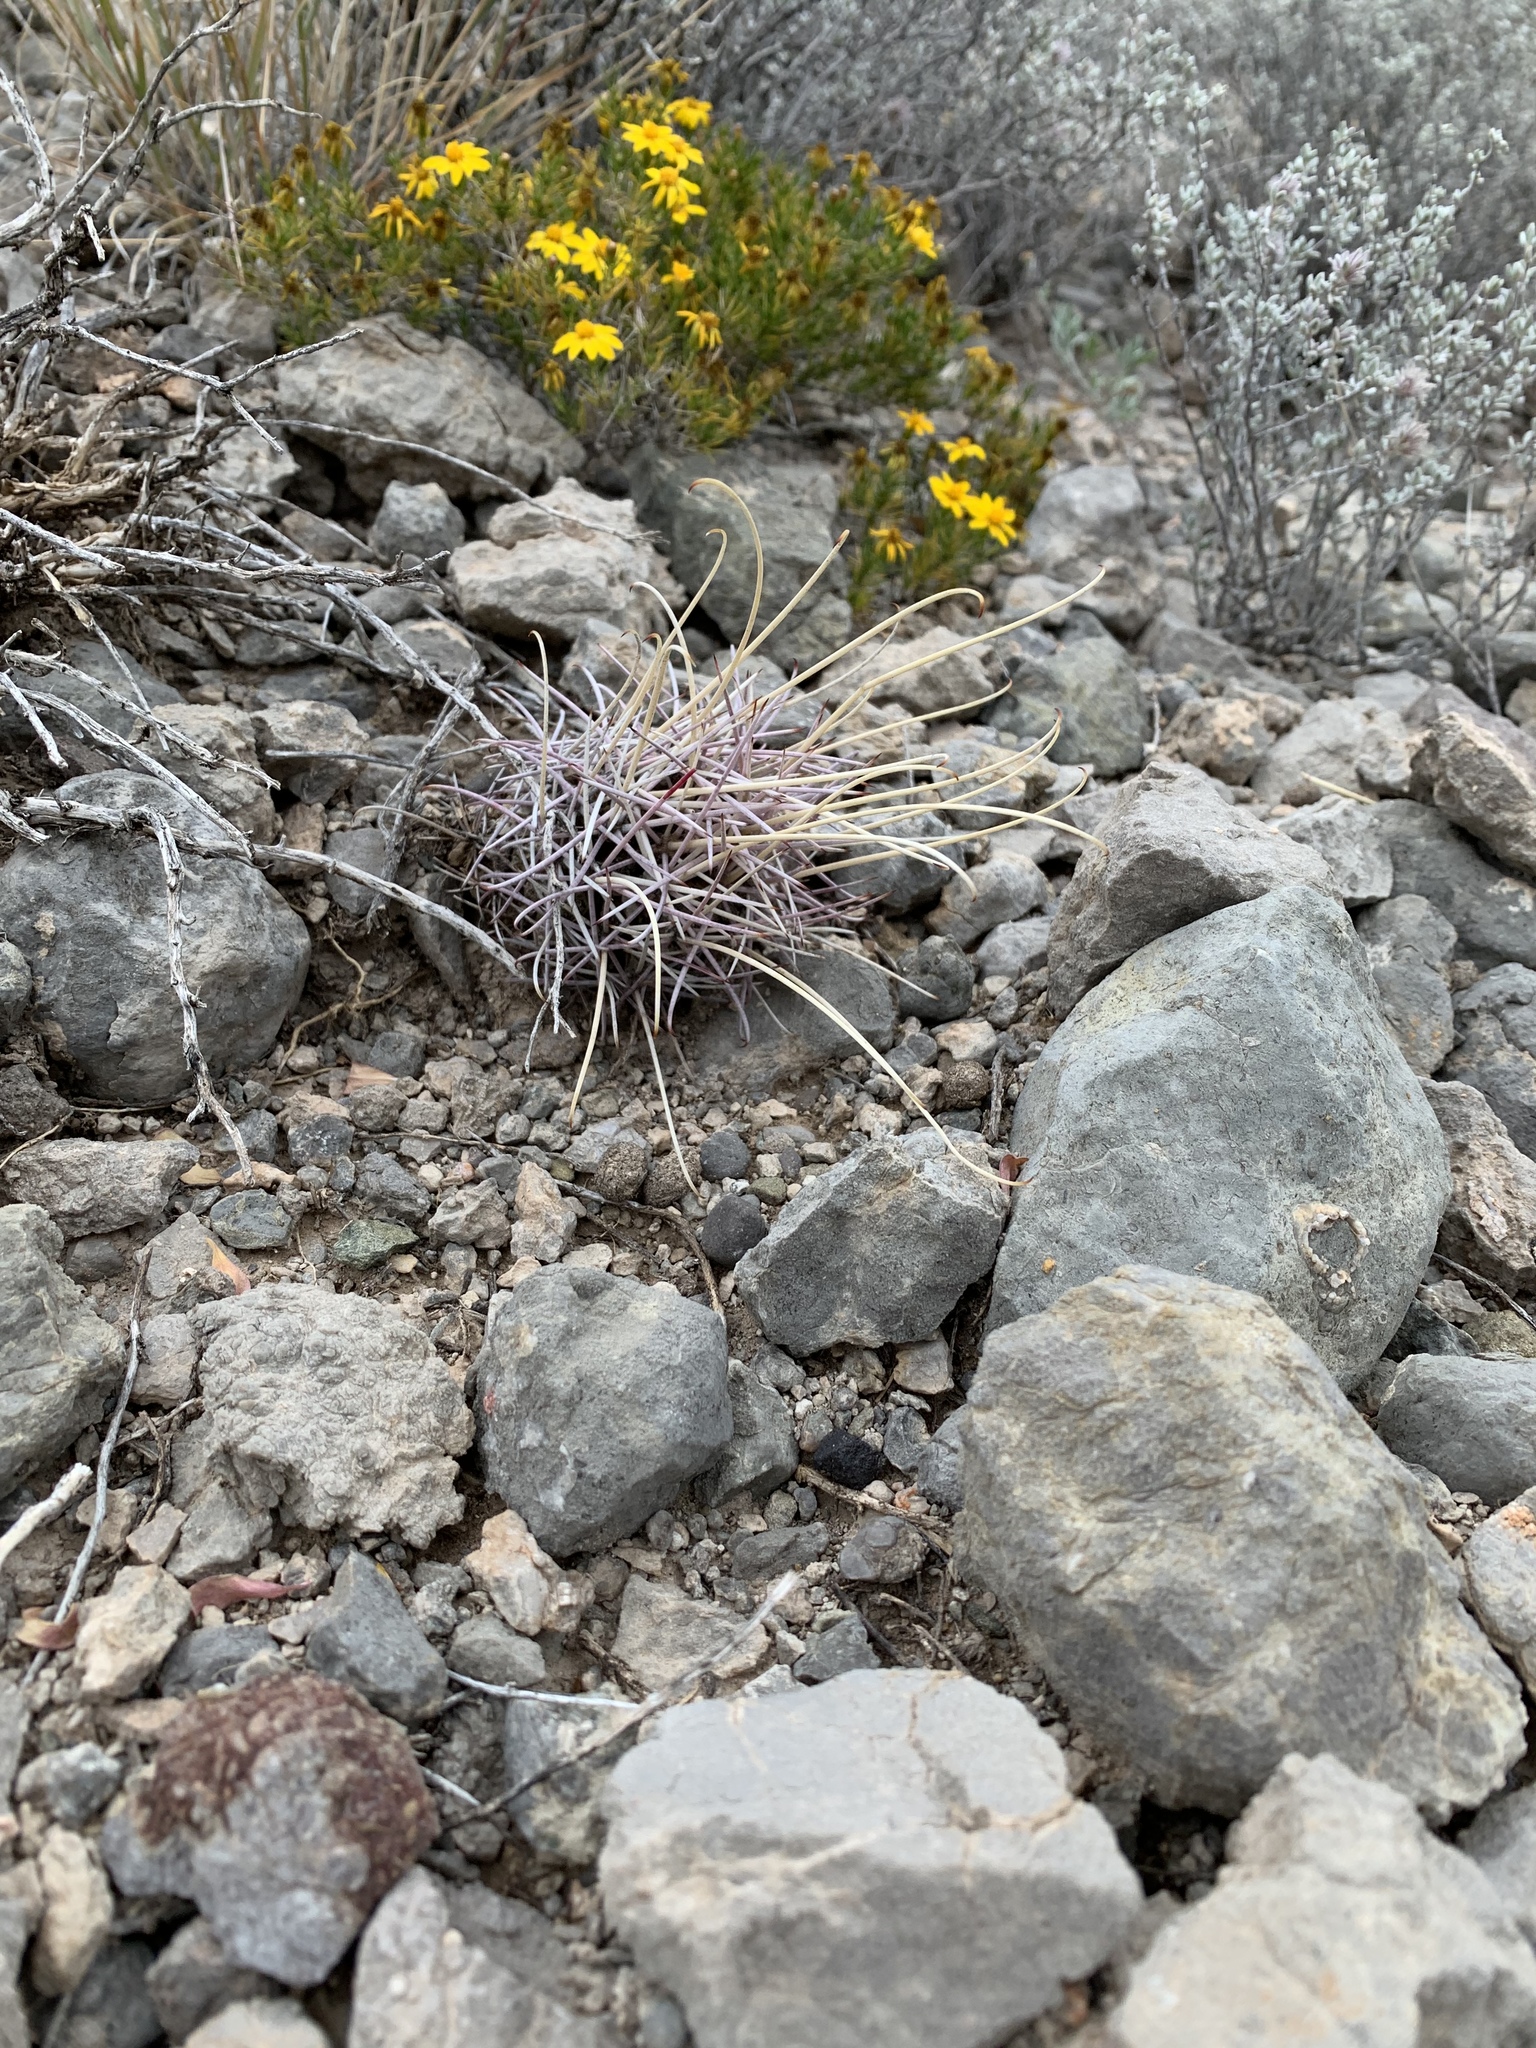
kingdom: Plantae
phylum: Tracheophyta
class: Magnoliopsida
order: Caryophyllales
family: Cactaceae
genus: Ferocactus
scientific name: Ferocactus uncinatus
